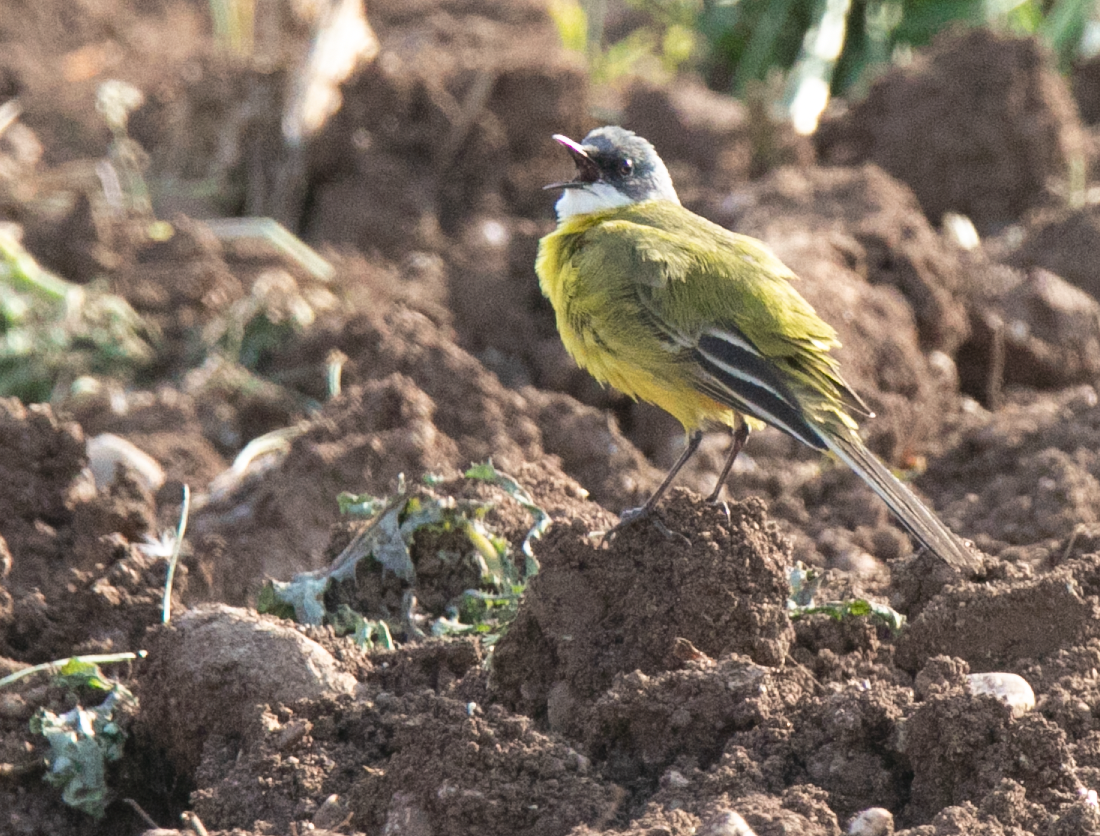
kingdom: Animalia
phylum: Chordata
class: Aves
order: Passeriformes
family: Motacillidae
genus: Motacilla
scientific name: Motacilla flava
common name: Western yellow wagtail
